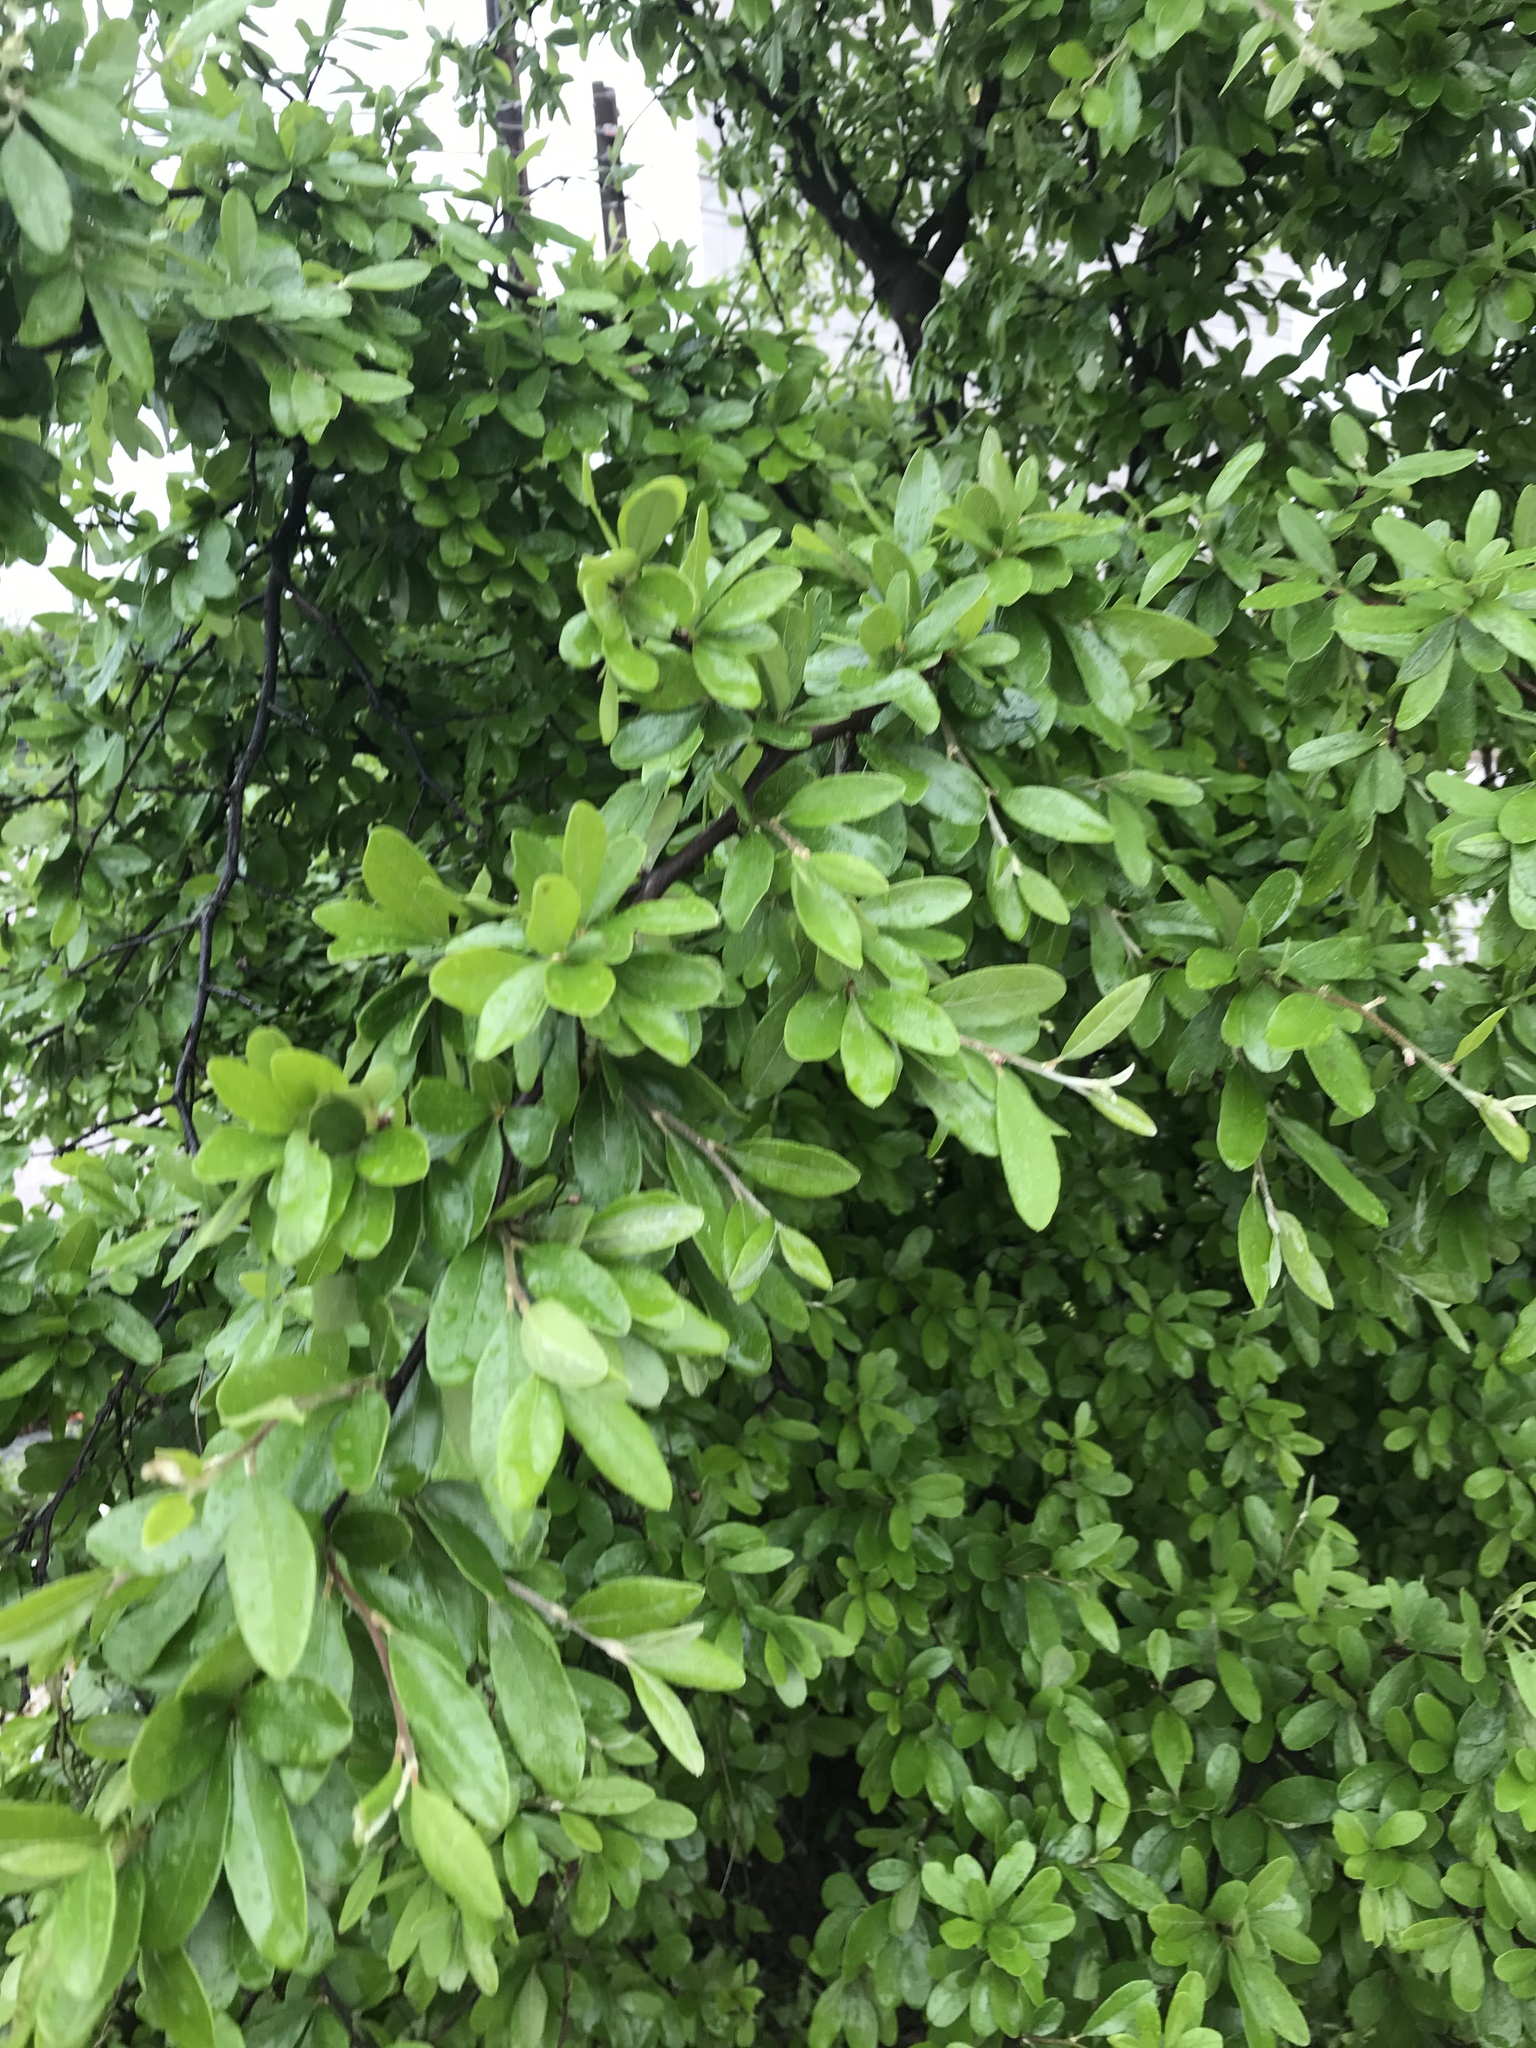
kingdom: Plantae
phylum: Tracheophyta
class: Magnoliopsida
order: Ericales
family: Sapotaceae
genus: Sideroxylon
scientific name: Sideroxylon lanuginosum
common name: Chittamwood
